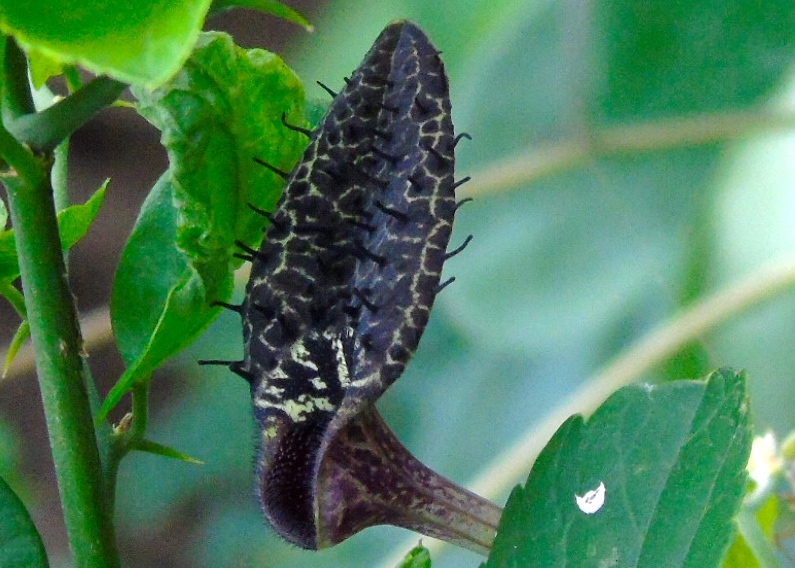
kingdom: Plantae
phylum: Tracheophyta
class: Magnoliopsida
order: Piperales
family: Aristolochiaceae
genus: Aristolochia
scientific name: Aristolochia taliscana
